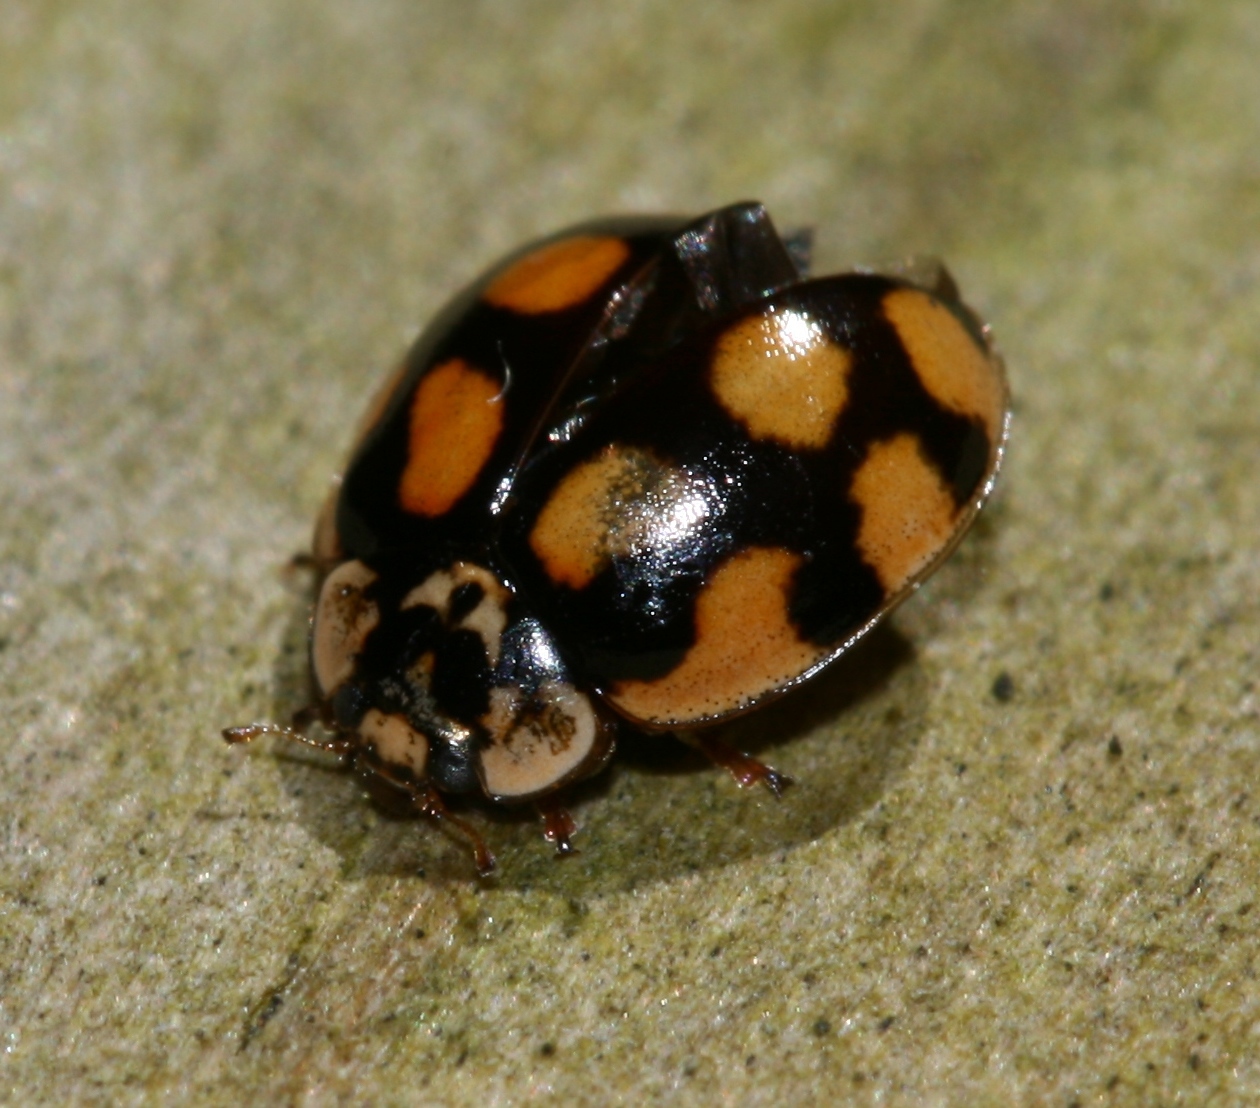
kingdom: Animalia
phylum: Arthropoda
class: Insecta
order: Coleoptera
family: Coccinellidae
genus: Adalia
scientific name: Adalia decempunctata
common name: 10-spot ladybird
